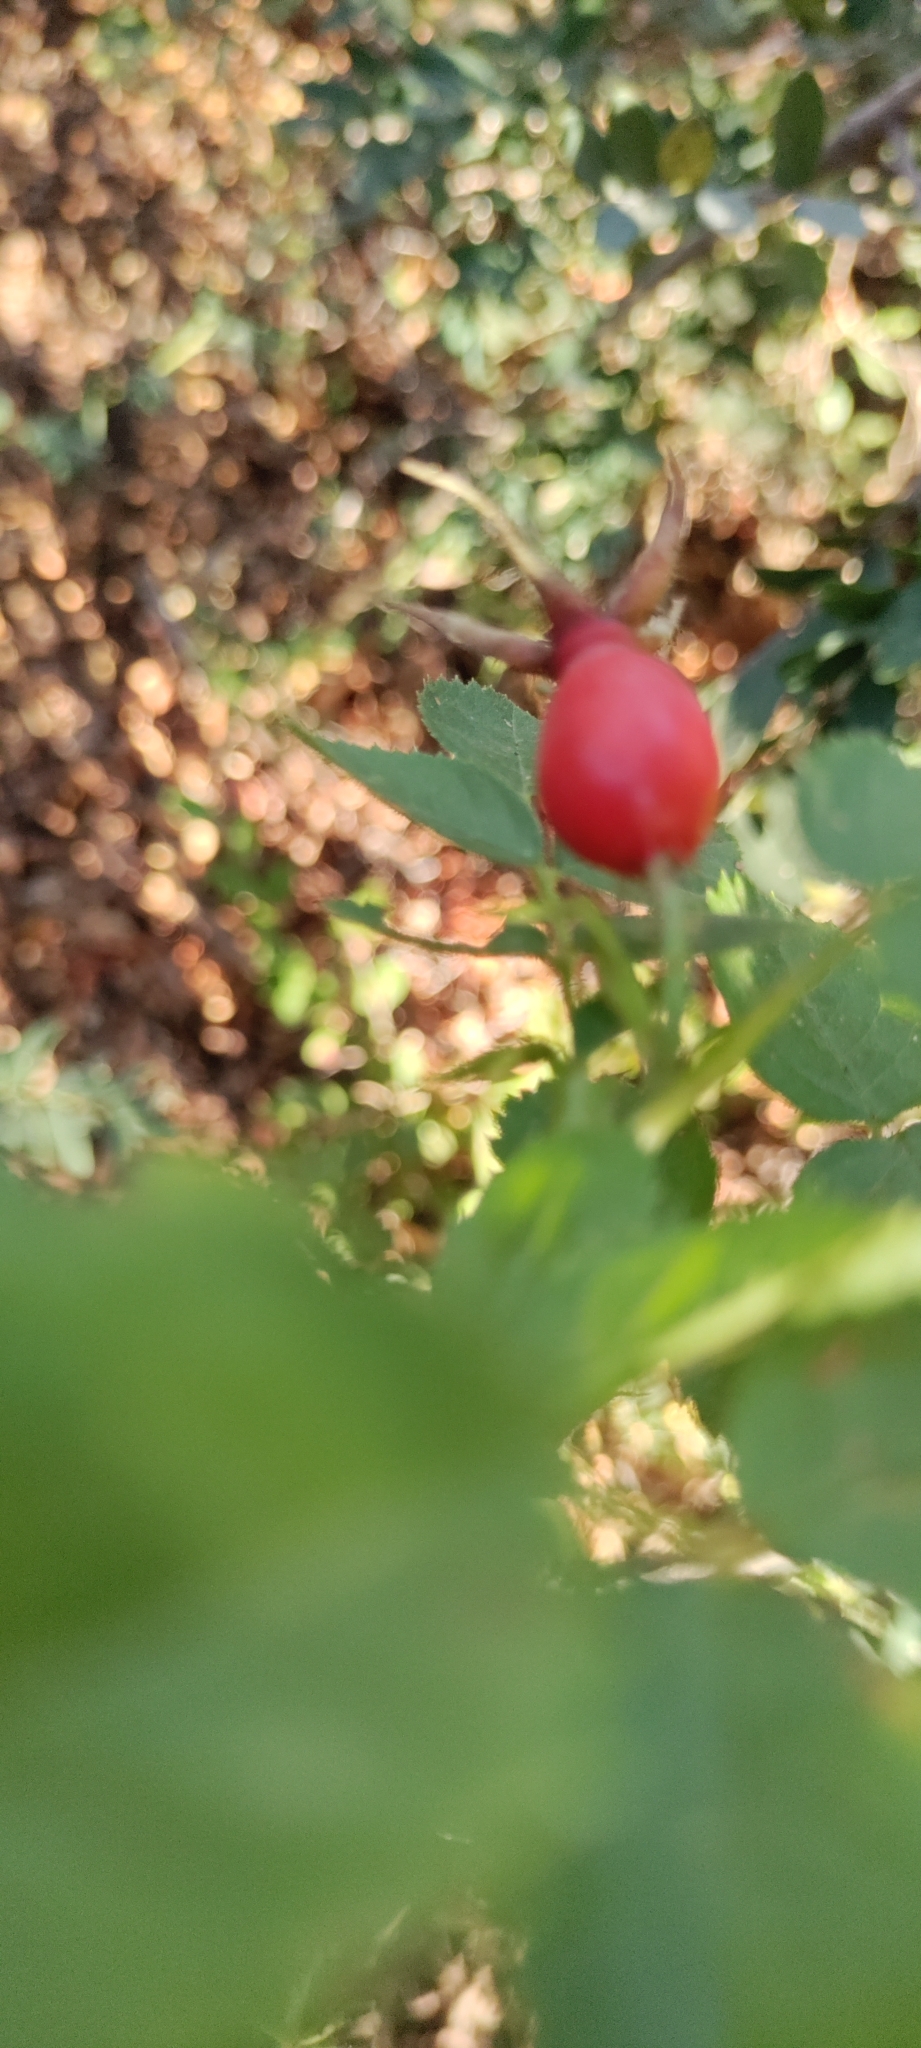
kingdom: Plantae
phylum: Tracheophyta
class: Magnoliopsida
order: Rosales
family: Rosaceae
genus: Rosa
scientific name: Rosa rubiginosa
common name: Sweet-briar
